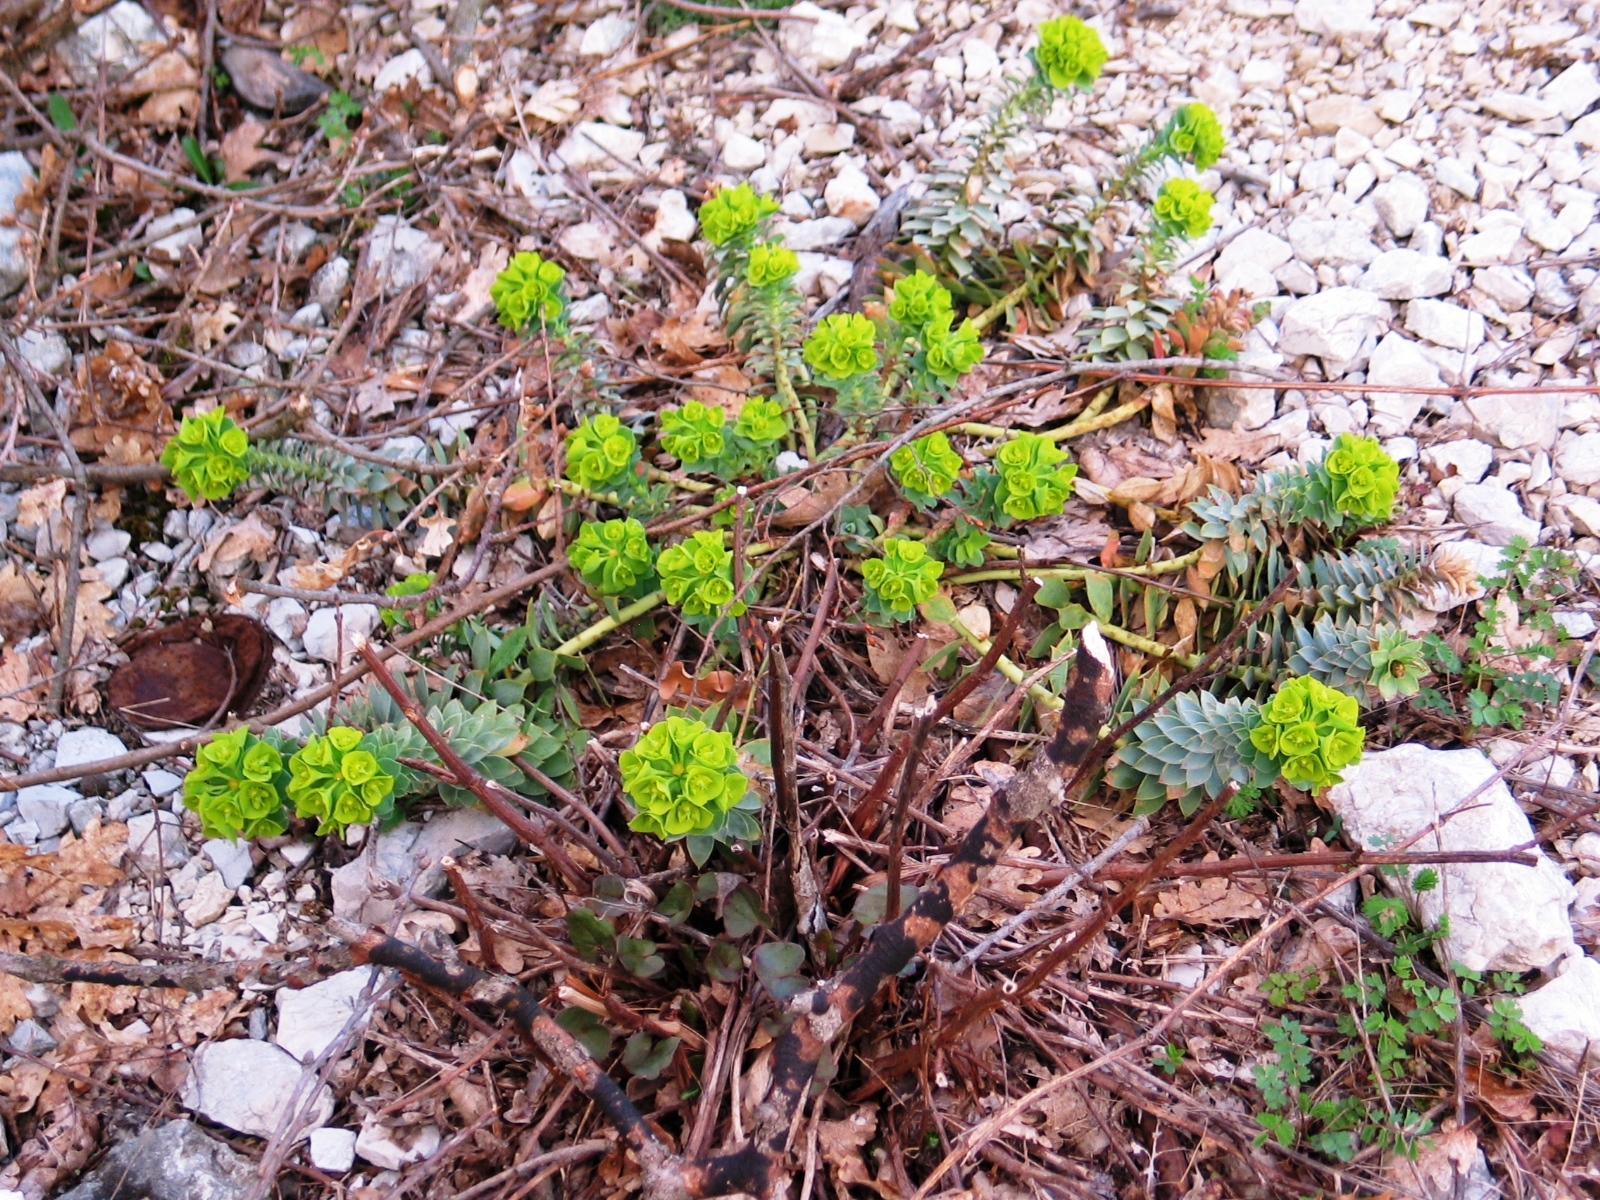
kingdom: Plantae
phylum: Tracheophyta
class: Magnoliopsida
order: Malpighiales
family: Euphorbiaceae
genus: Euphorbia
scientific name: Euphorbia myrsinites
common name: Myrtle spurge
